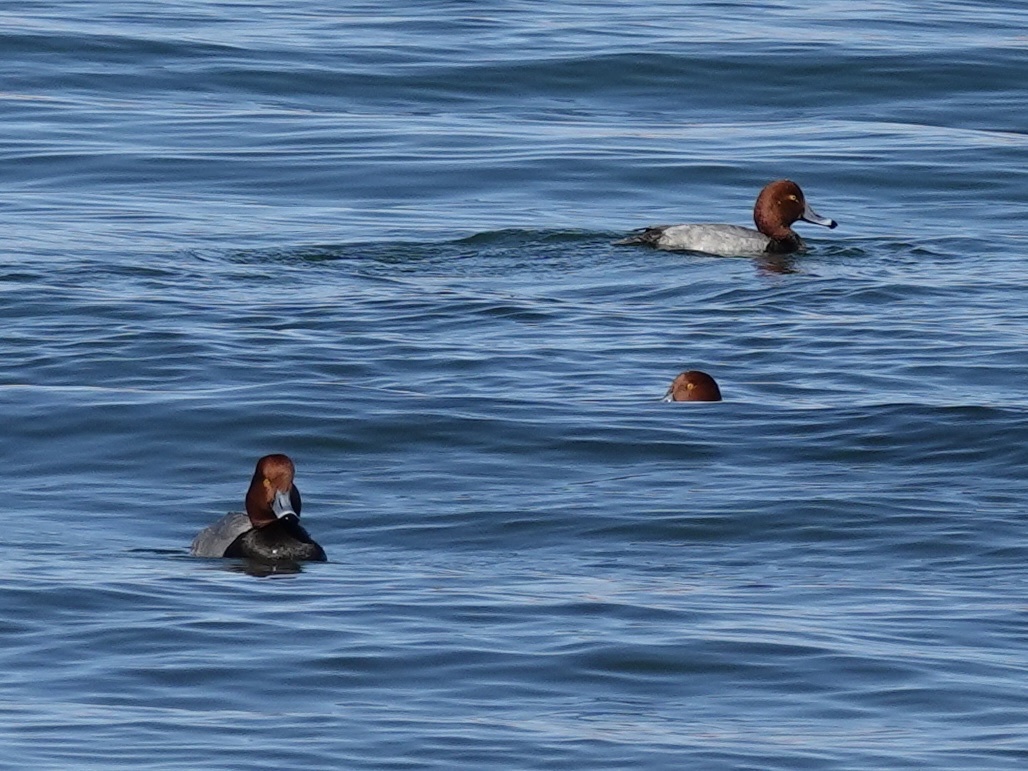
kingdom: Animalia
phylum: Chordata
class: Aves
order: Anseriformes
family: Anatidae
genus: Aythya
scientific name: Aythya americana
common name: Redhead
